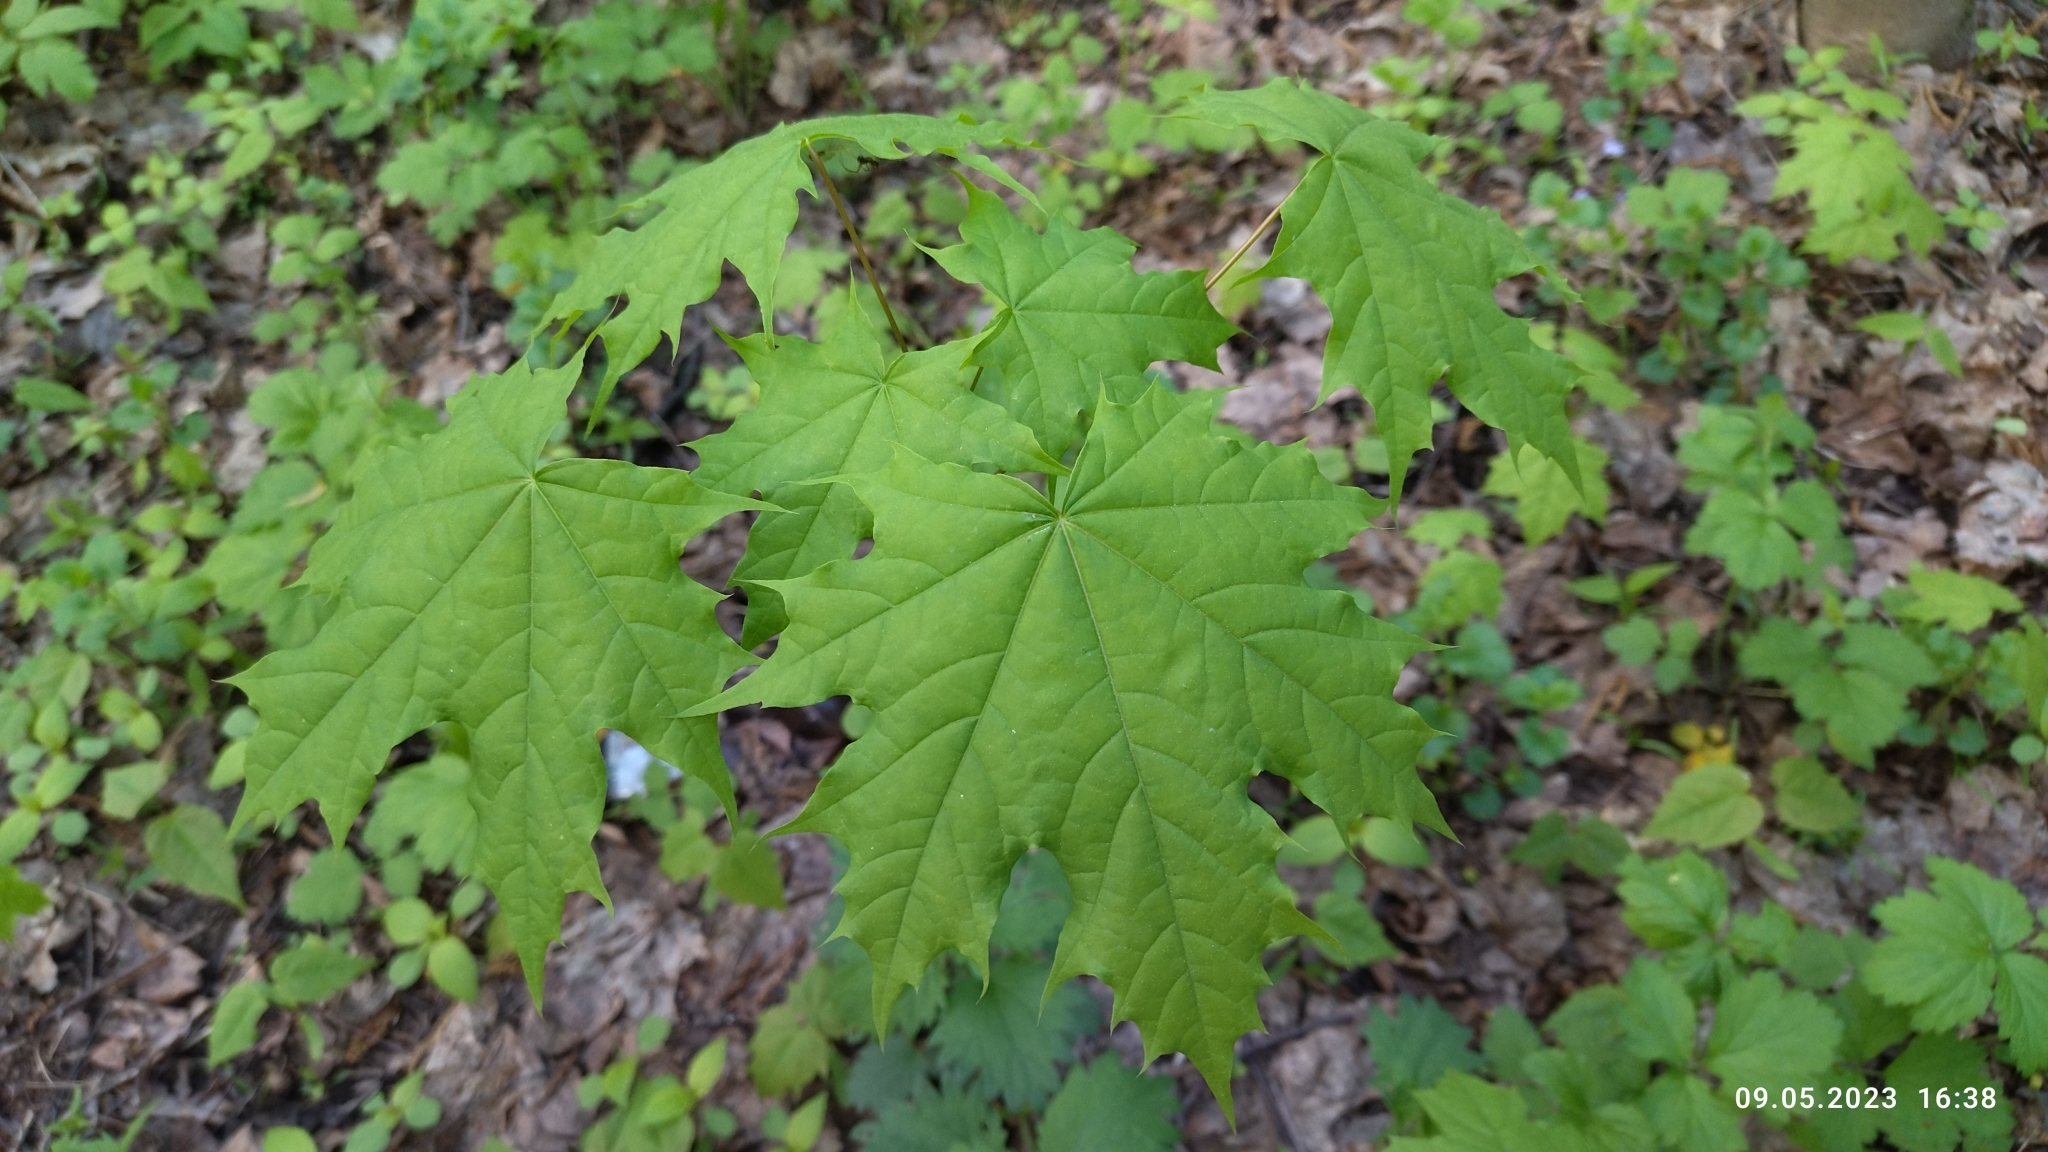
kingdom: Plantae
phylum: Tracheophyta
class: Magnoliopsida
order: Sapindales
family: Sapindaceae
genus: Acer
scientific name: Acer platanoides
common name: Norway maple
